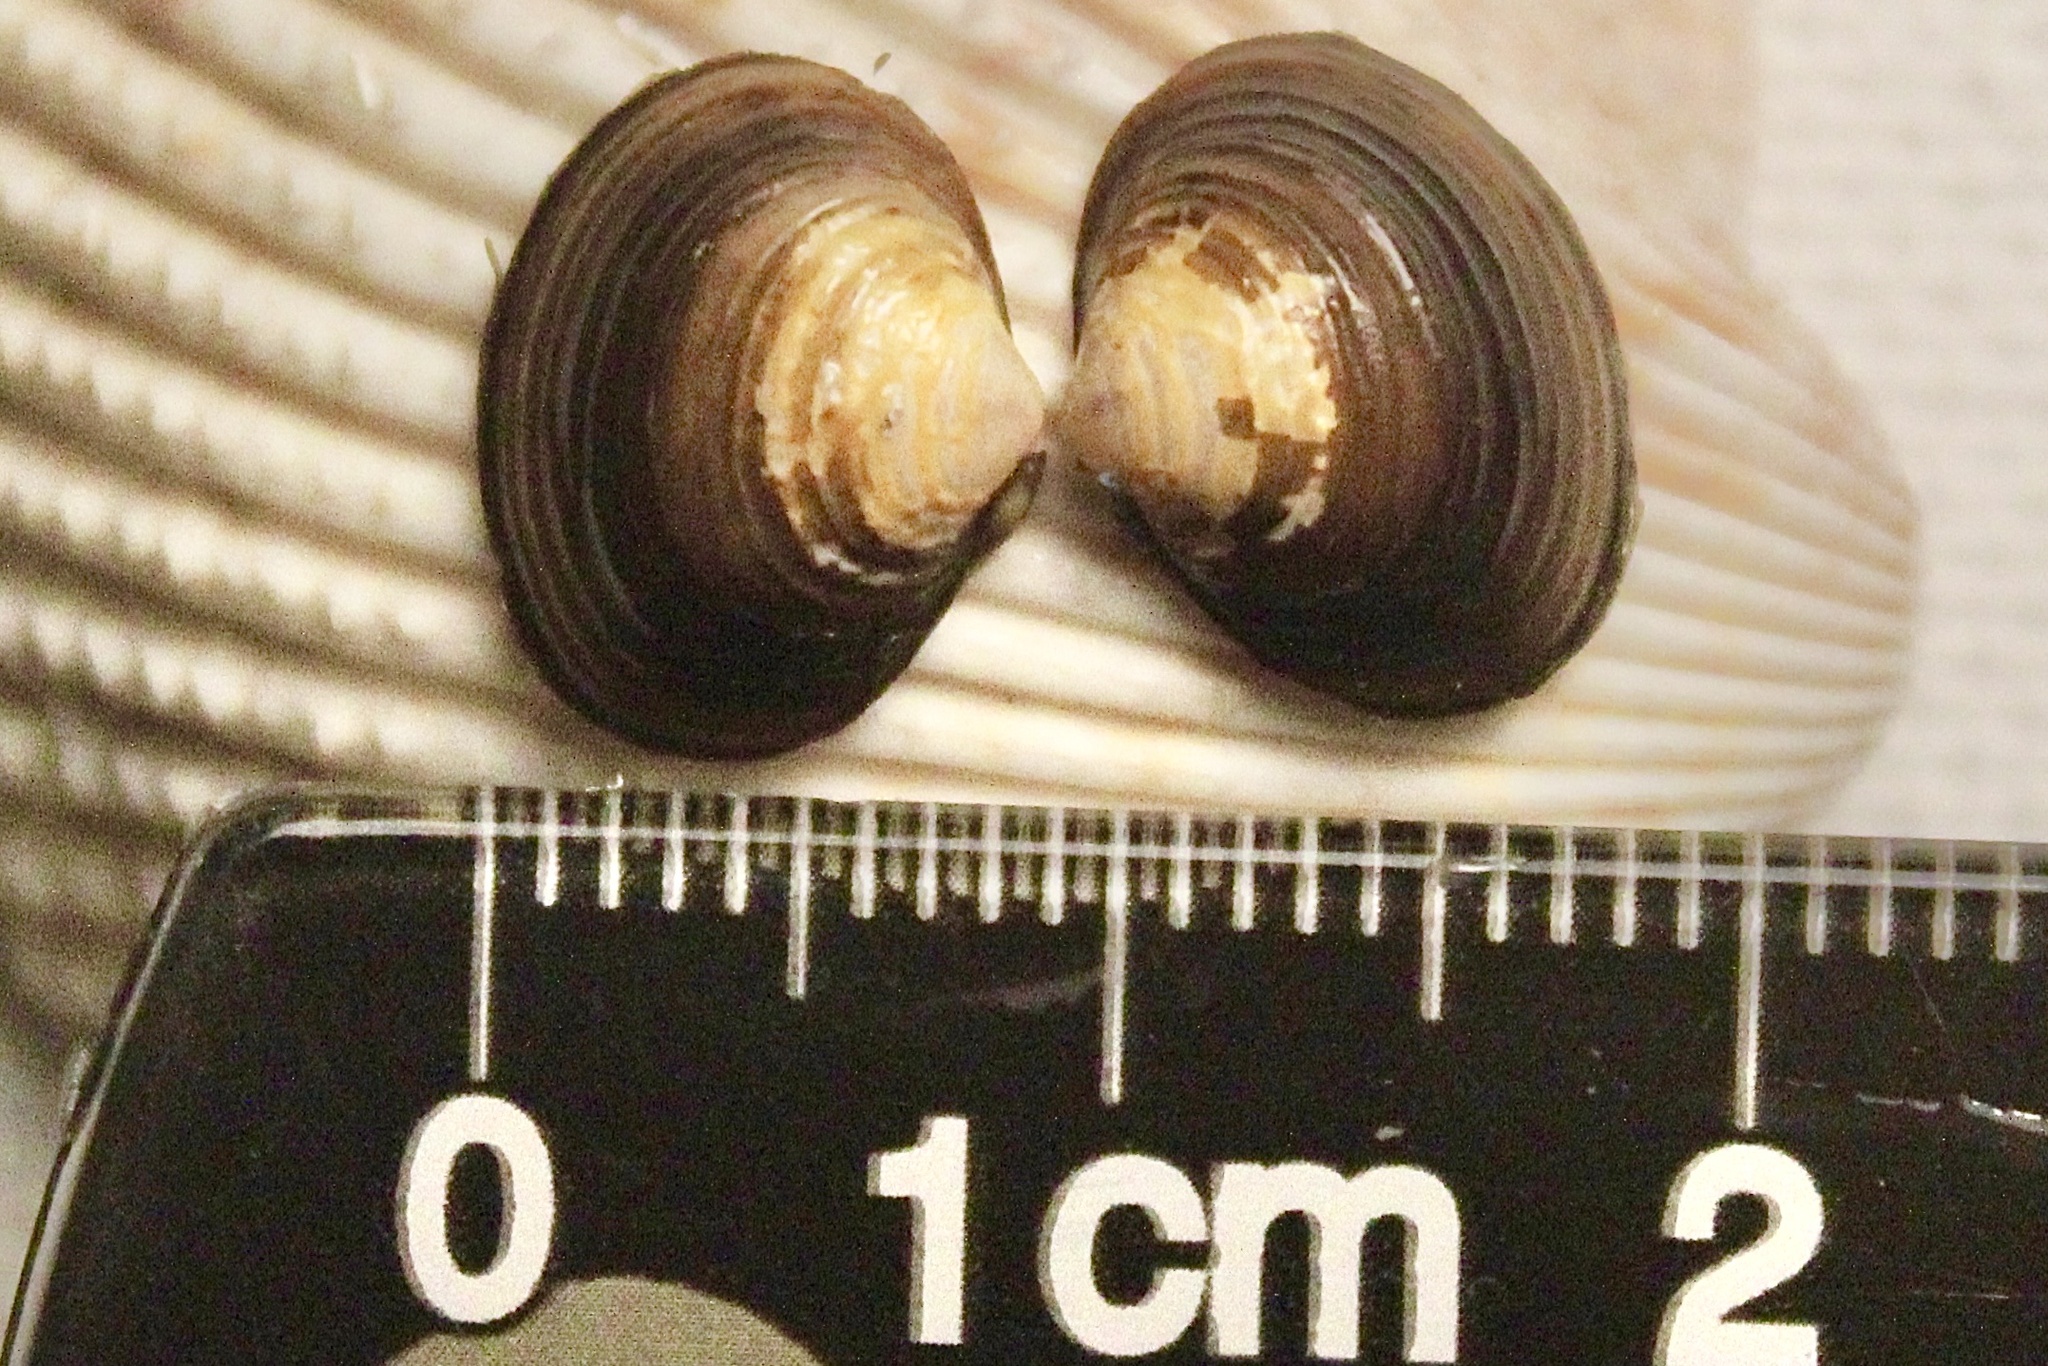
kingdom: Animalia
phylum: Mollusca
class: Bivalvia
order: Venerida
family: Cyrenidae
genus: Corbicula
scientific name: Corbicula fluminea
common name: Asian clam
